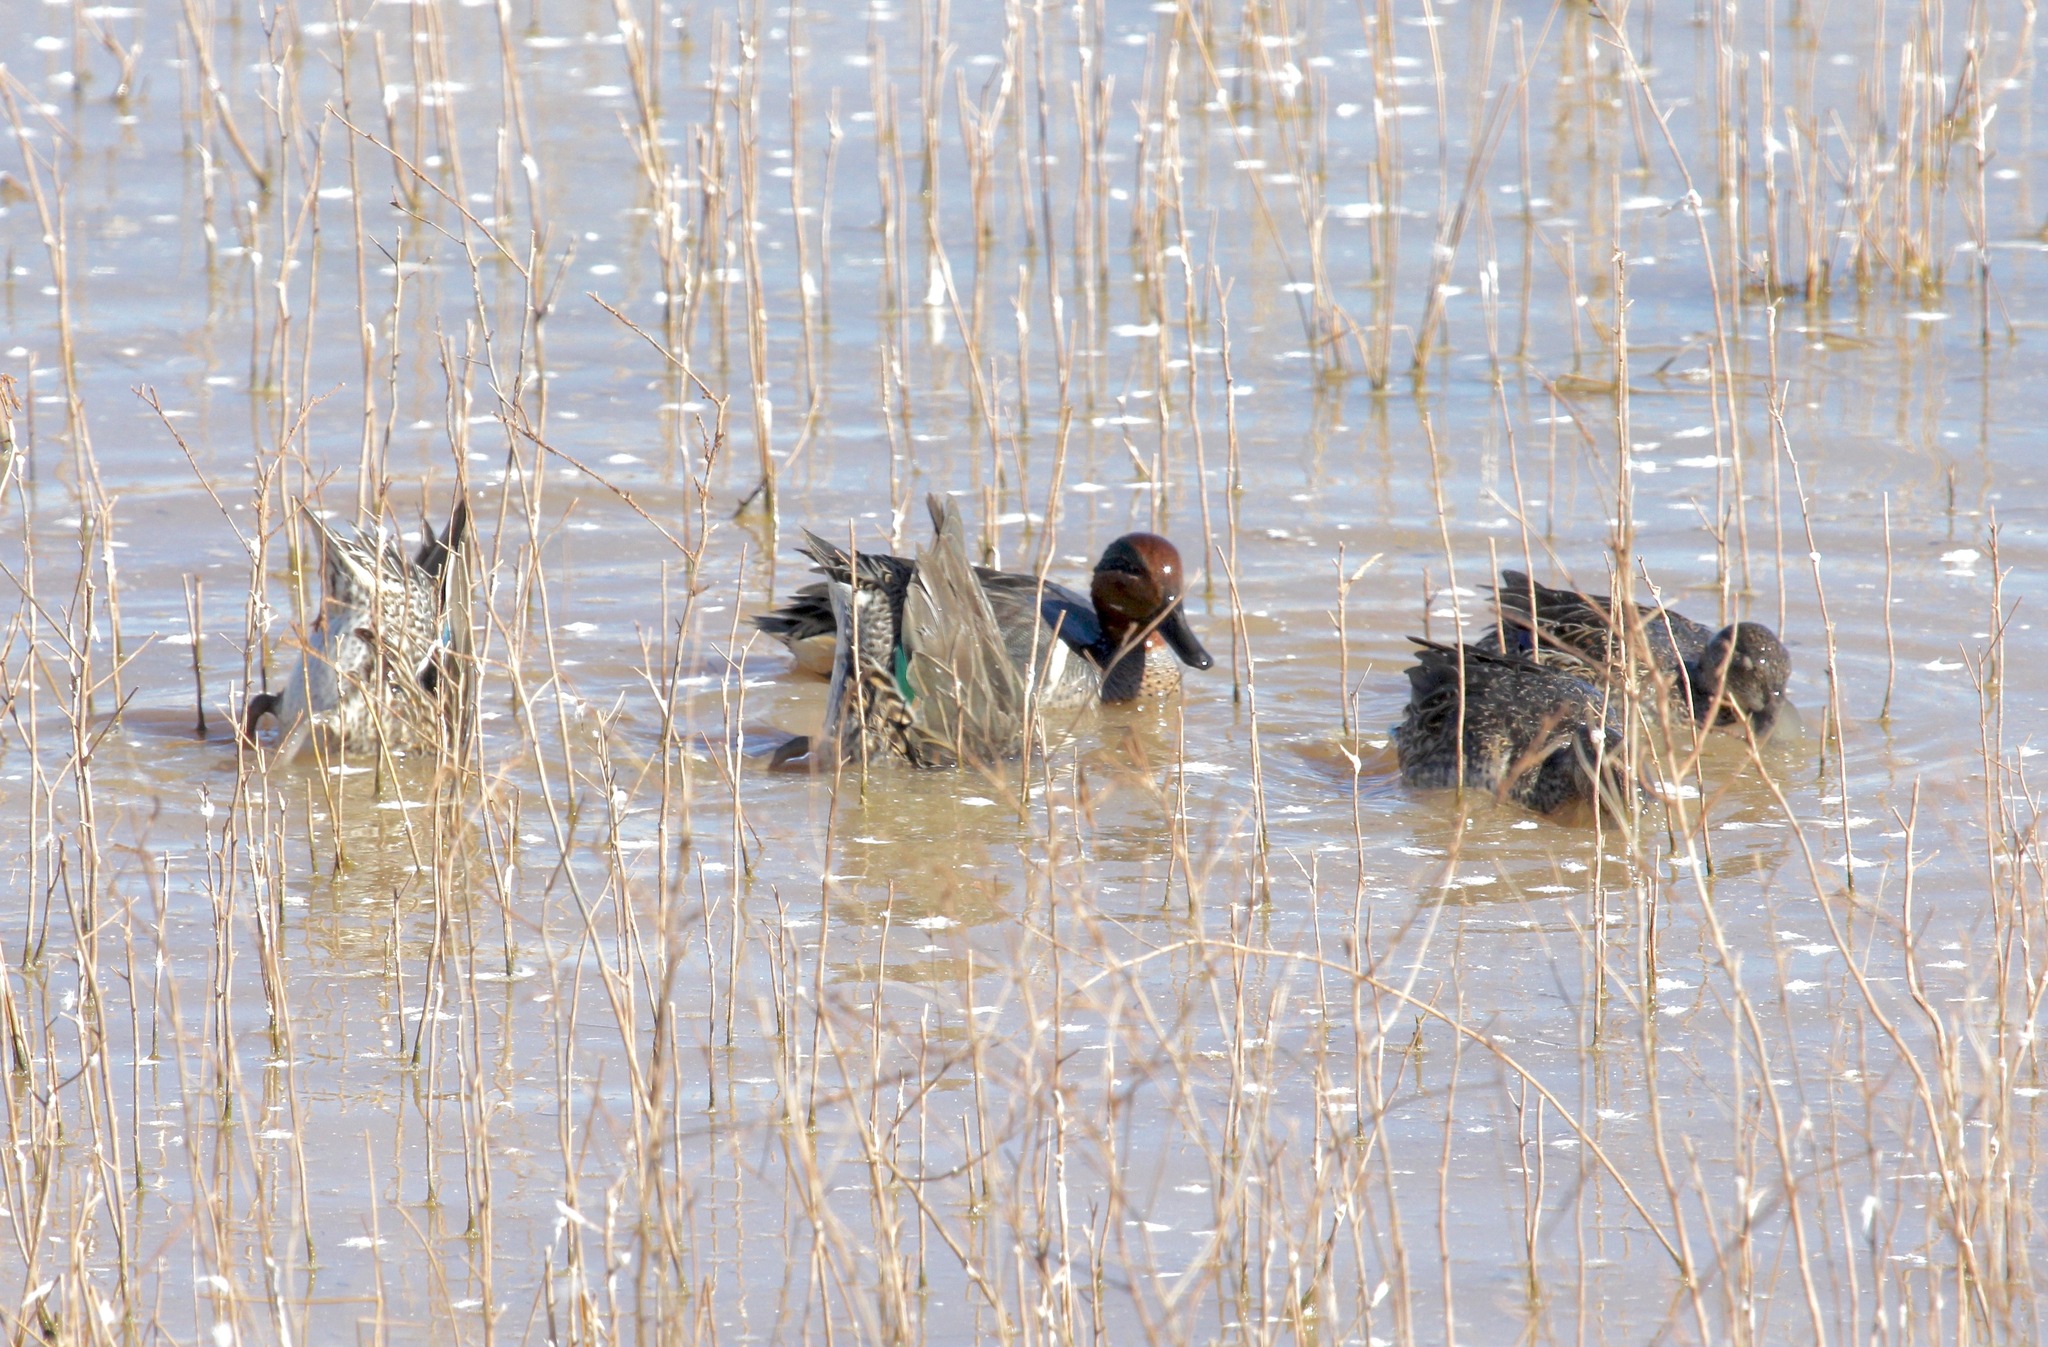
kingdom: Animalia
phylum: Chordata
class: Aves
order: Anseriformes
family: Anatidae
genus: Anas
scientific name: Anas crecca
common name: Eurasian teal
